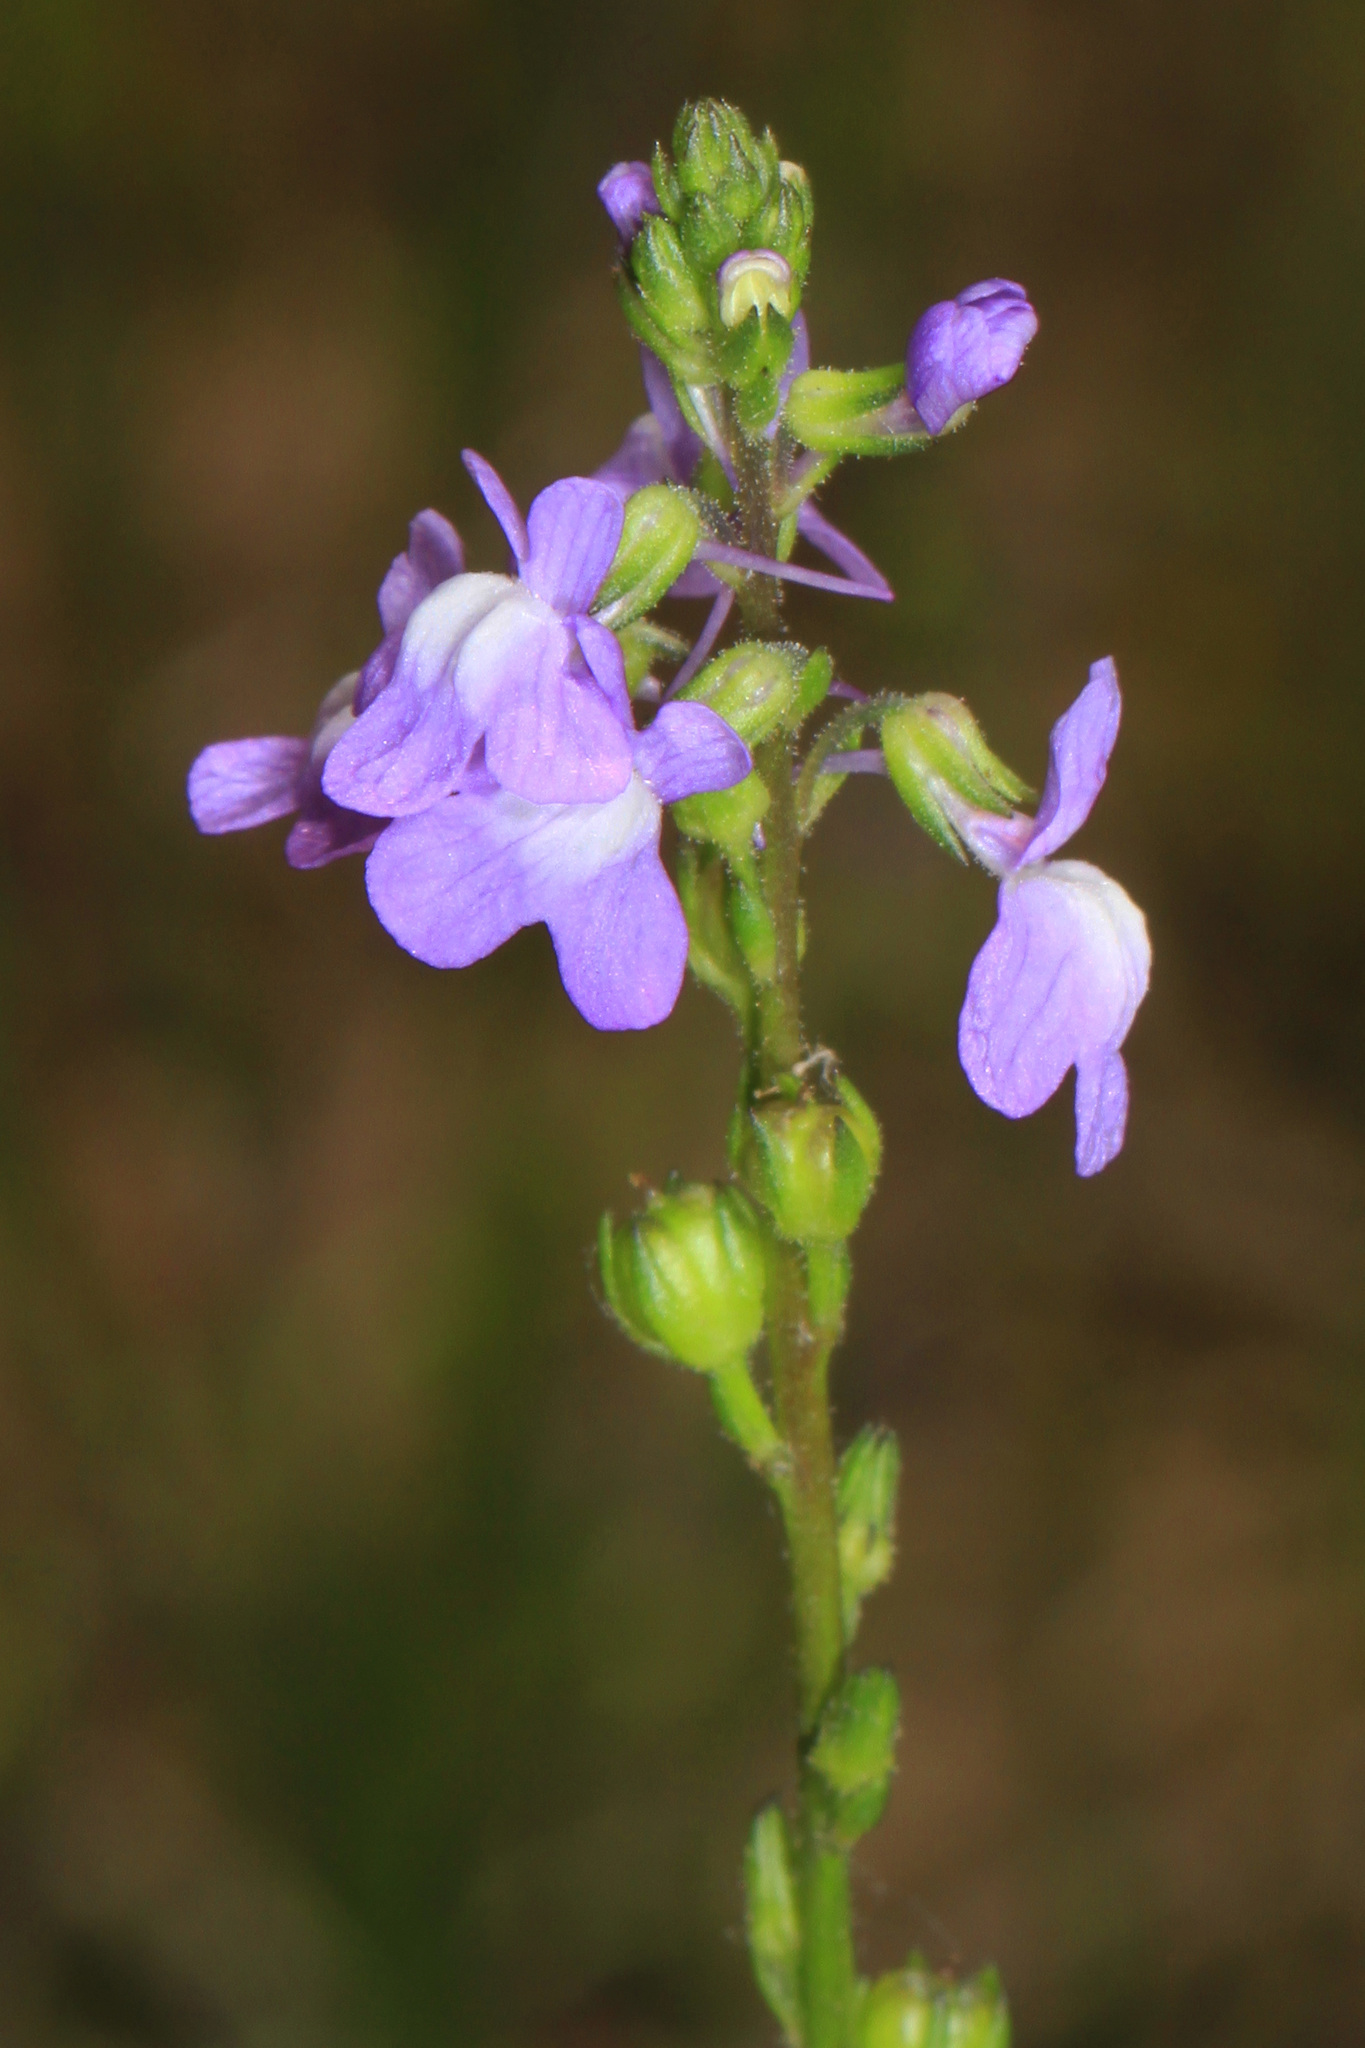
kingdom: Plantae
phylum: Tracheophyta
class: Magnoliopsida
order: Lamiales
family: Plantaginaceae
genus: Nuttallanthus
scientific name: Nuttallanthus canadensis
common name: Blue toadflax
